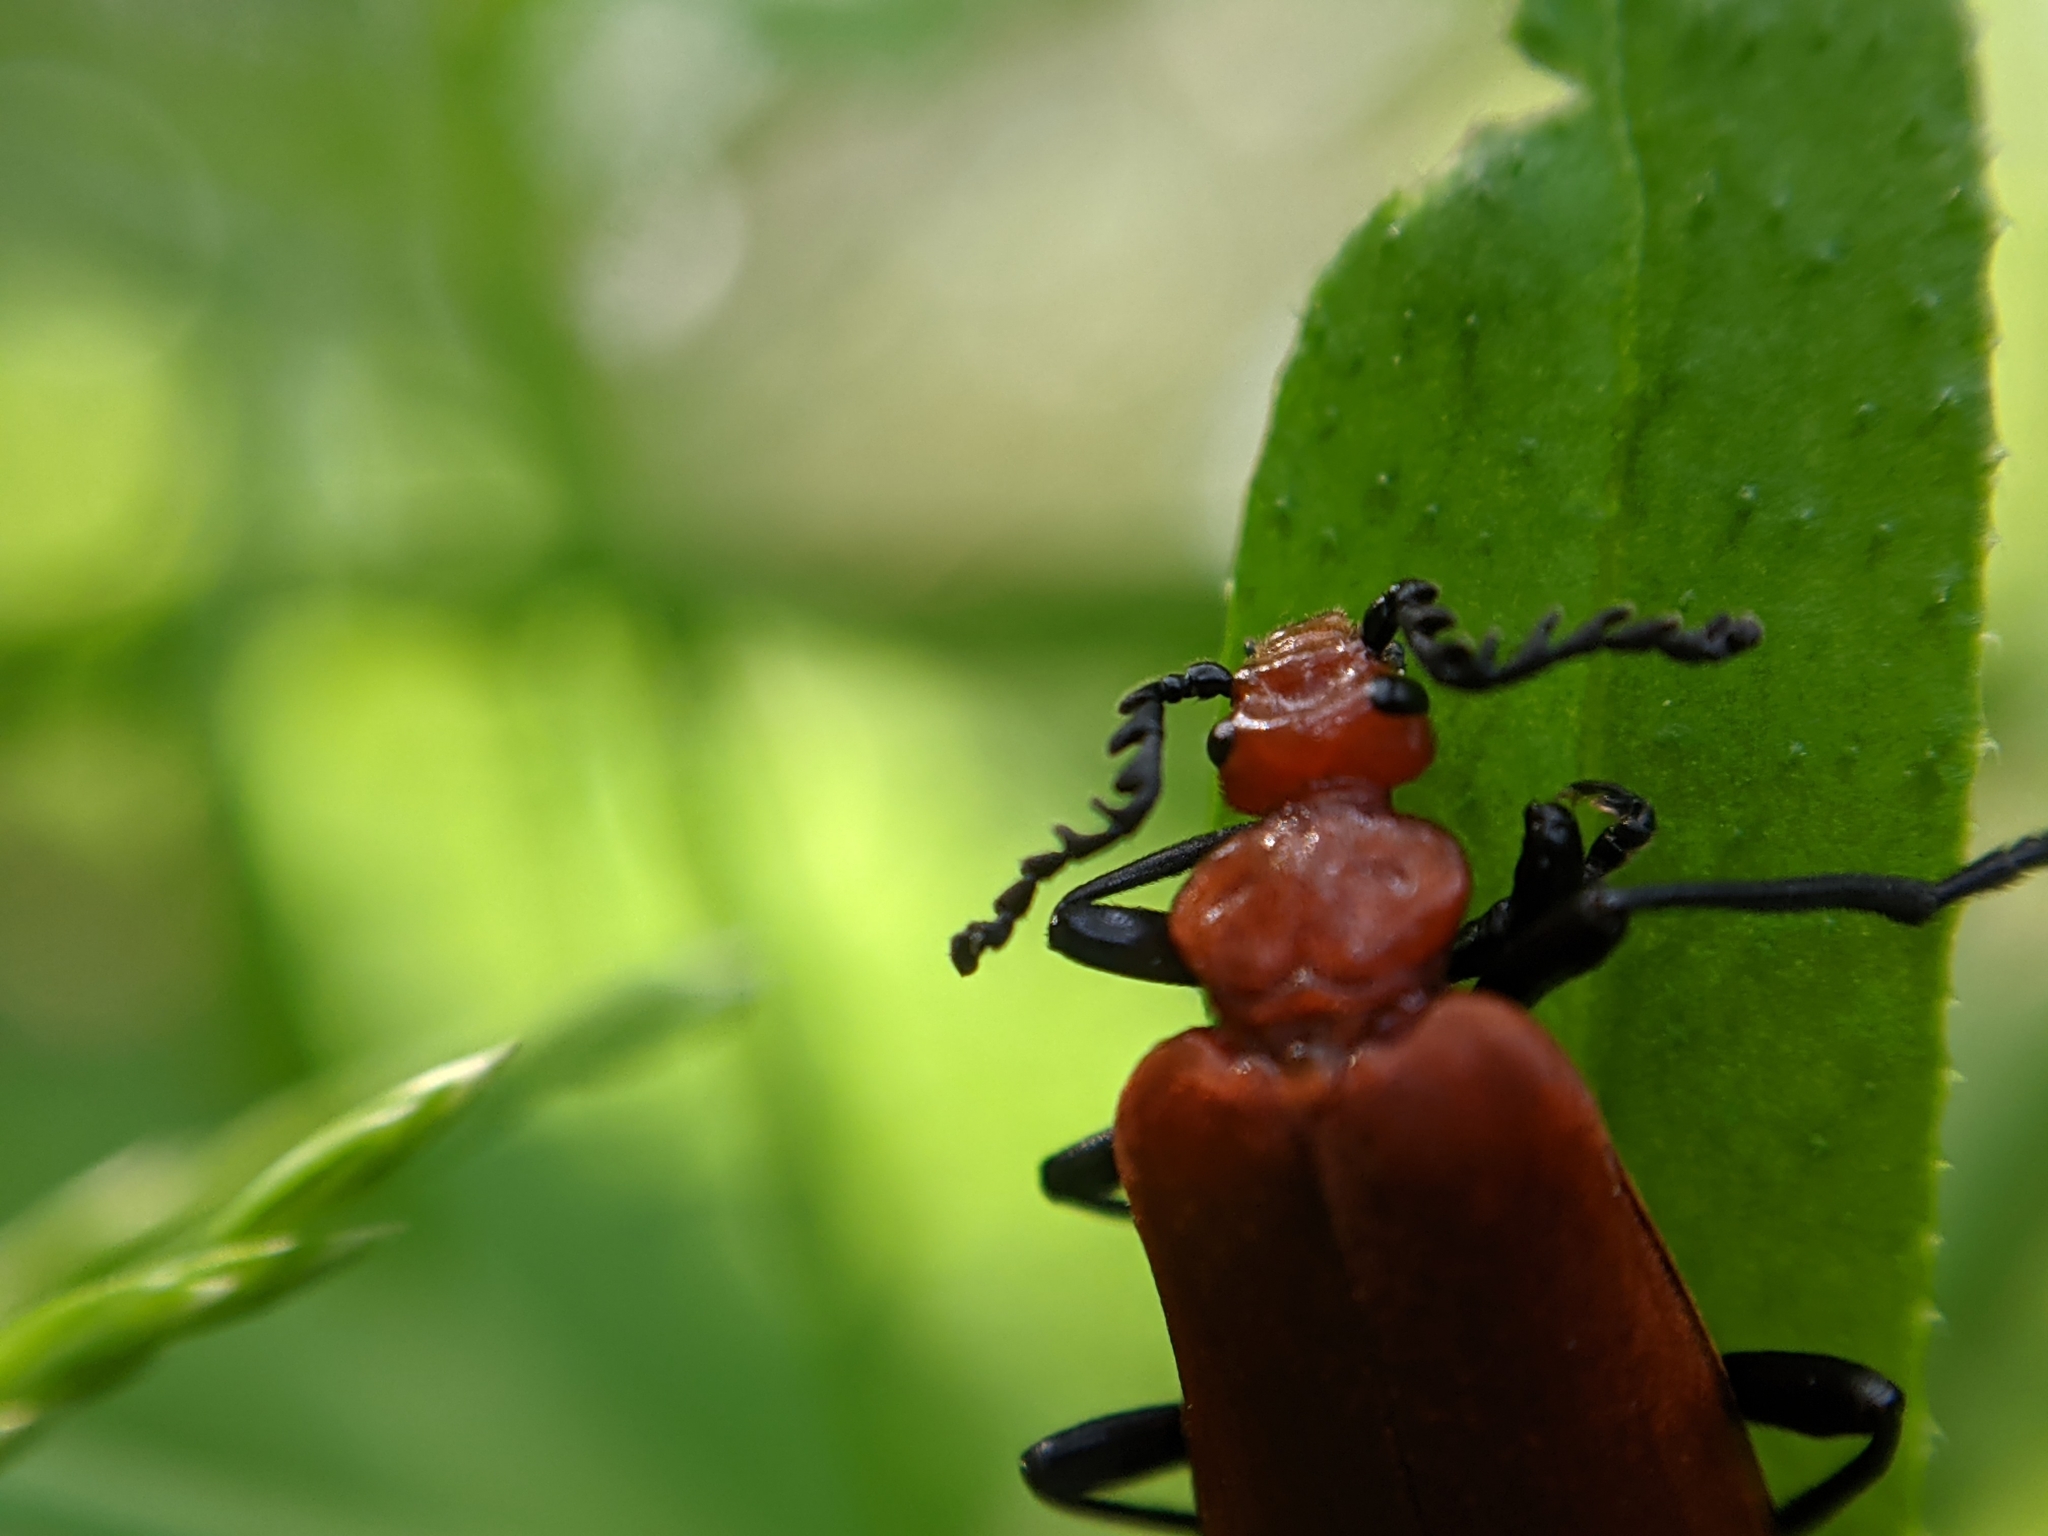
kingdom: Animalia
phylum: Arthropoda
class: Insecta
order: Coleoptera
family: Pyrochroidae
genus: Pyrochroa
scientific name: Pyrochroa serraticornis
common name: Red-headed cardinal beetle
